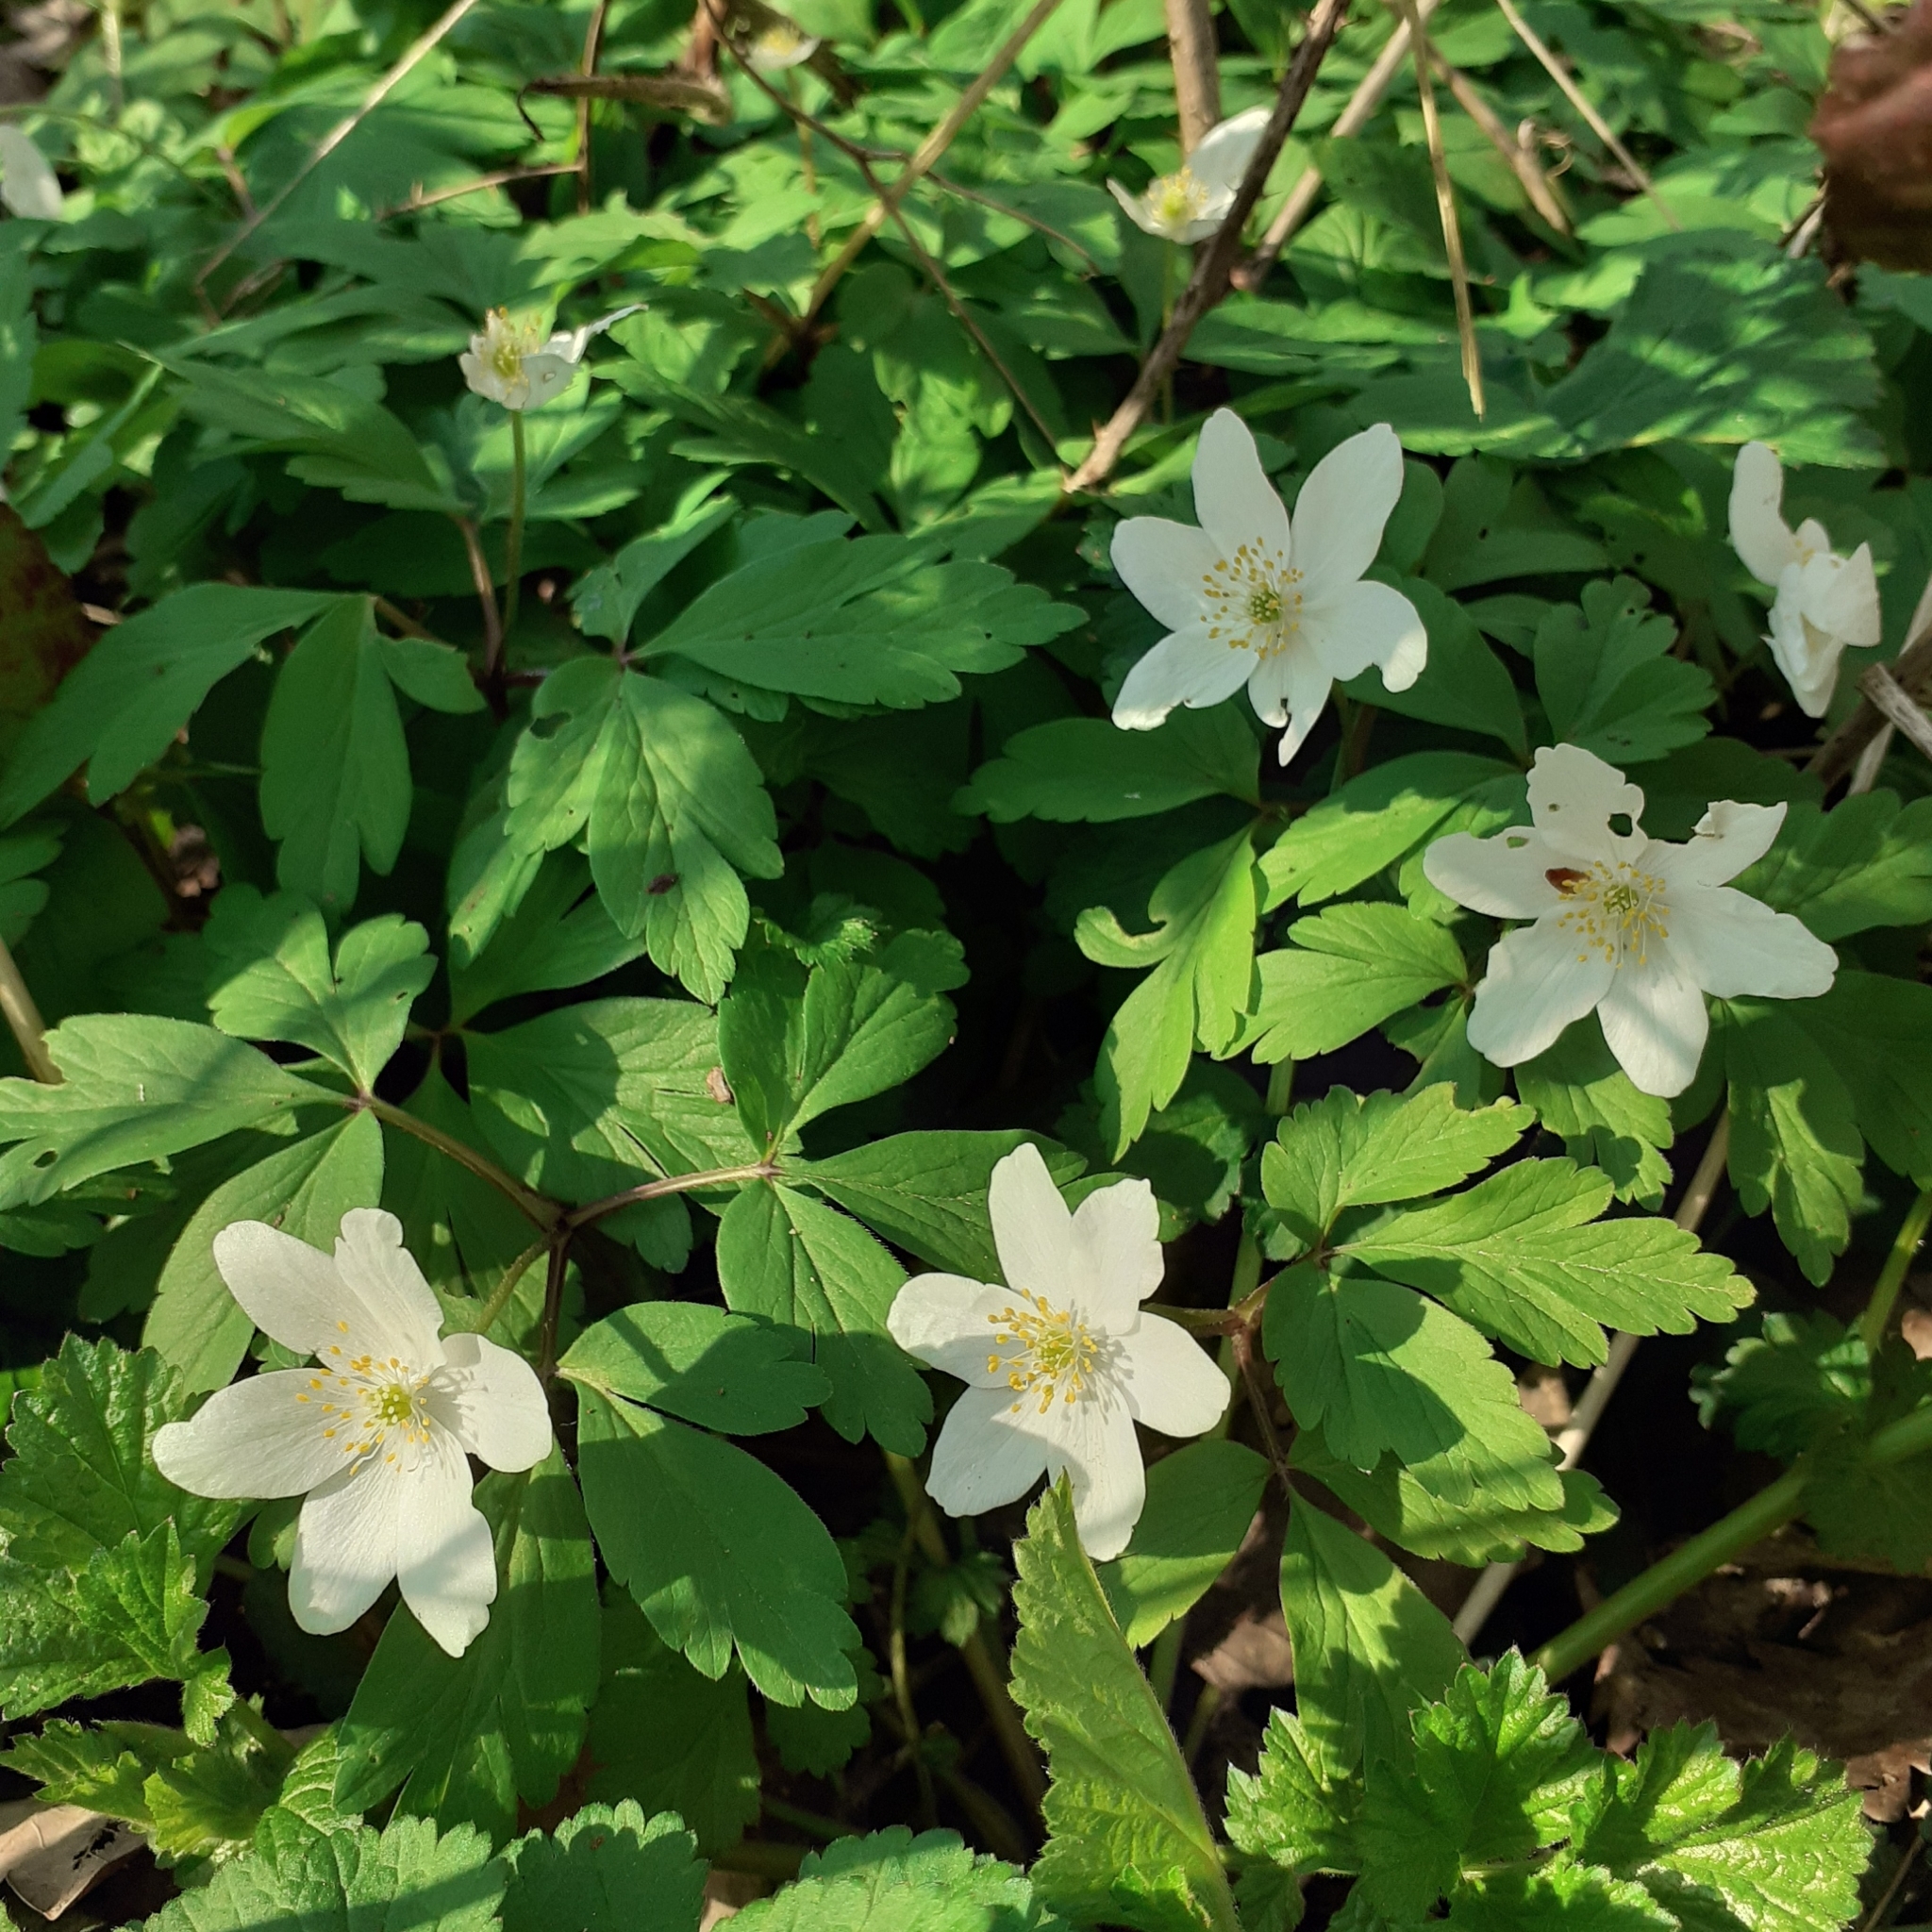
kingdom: Plantae
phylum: Tracheophyta
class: Magnoliopsida
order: Ranunculales
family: Ranunculaceae
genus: Anemone
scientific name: Anemone nemorosa
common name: Wood anemone
